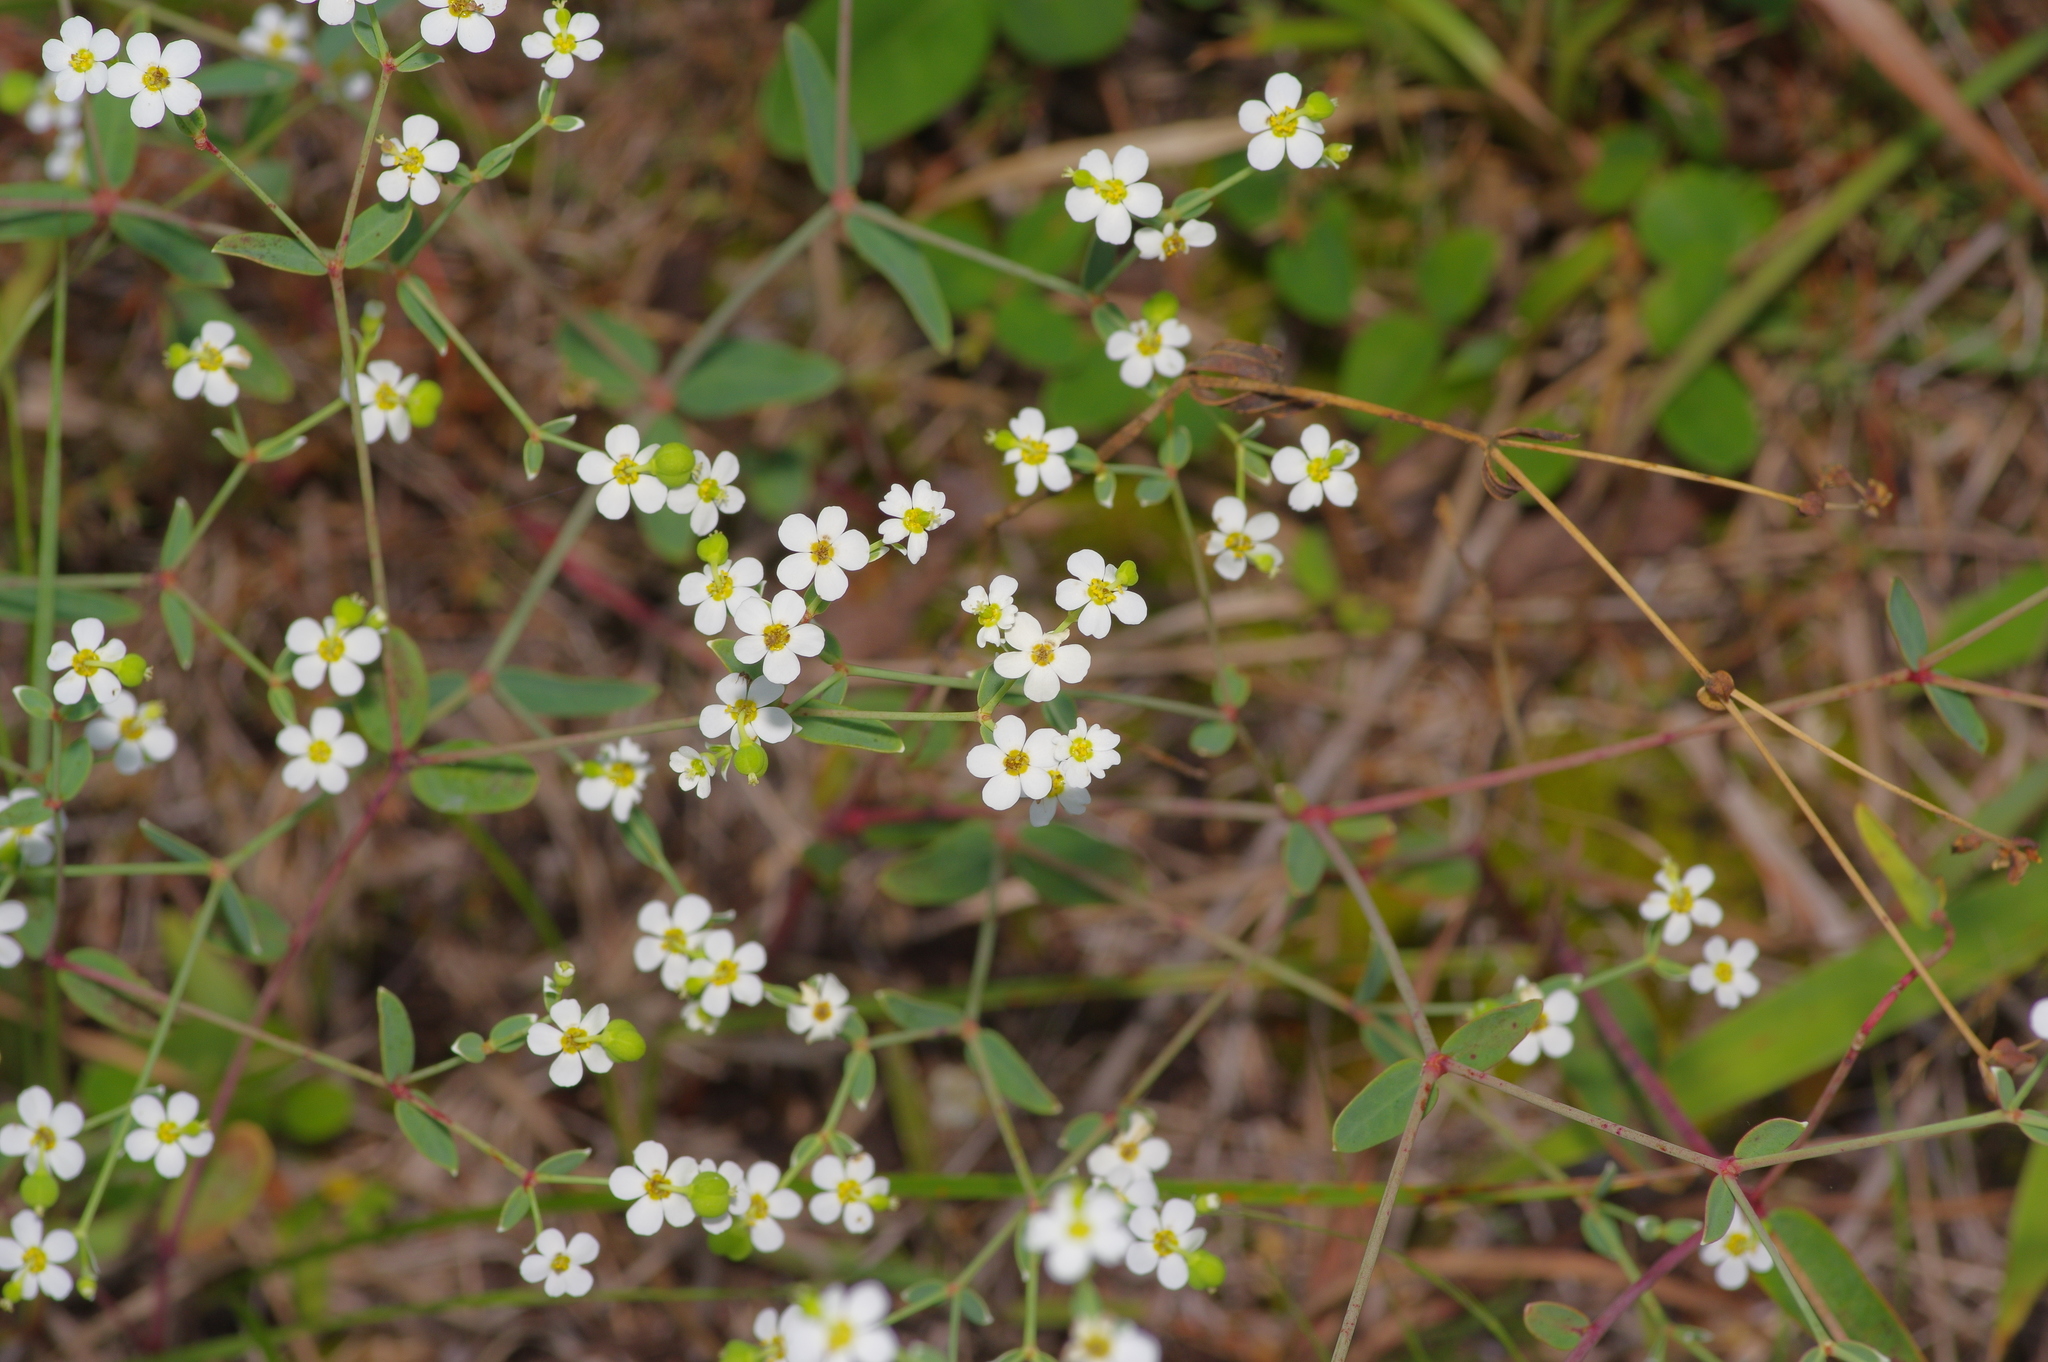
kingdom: Plantae
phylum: Tracheophyta
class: Magnoliopsida
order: Malpighiales
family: Euphorbiaceae
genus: Euphorbia
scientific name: Euphorbia corollata
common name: Flowering spurge
